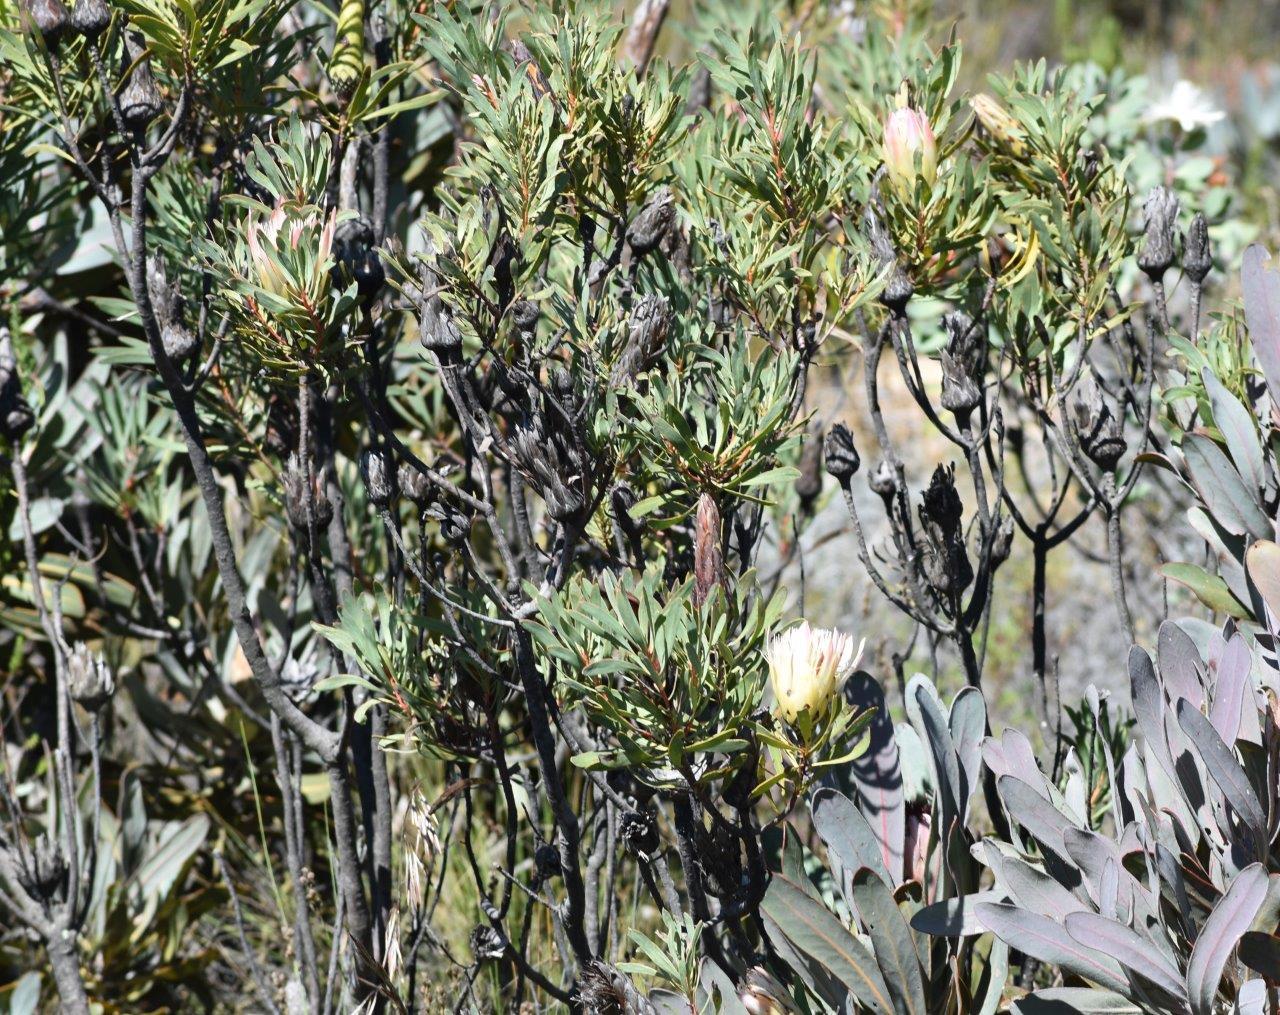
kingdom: Plantae
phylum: Tracheophyta
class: Magnoliopsida
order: Proteales
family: Proteaceae
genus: Protea
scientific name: Protea repens
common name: Sugarbush
